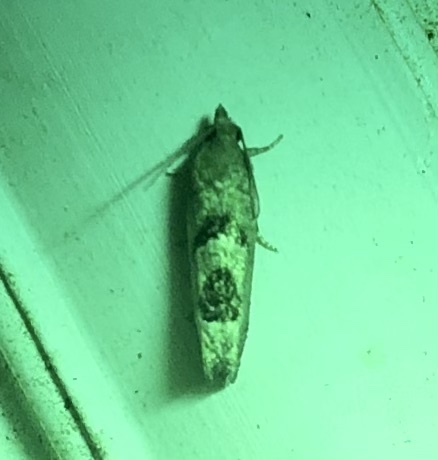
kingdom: Animalia
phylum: Arthropoda
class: Insecta
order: Lepidoptera
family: Tortricidae
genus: Eucosma
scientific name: Eucosma tomonana
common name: Aster-head eucosma moth
